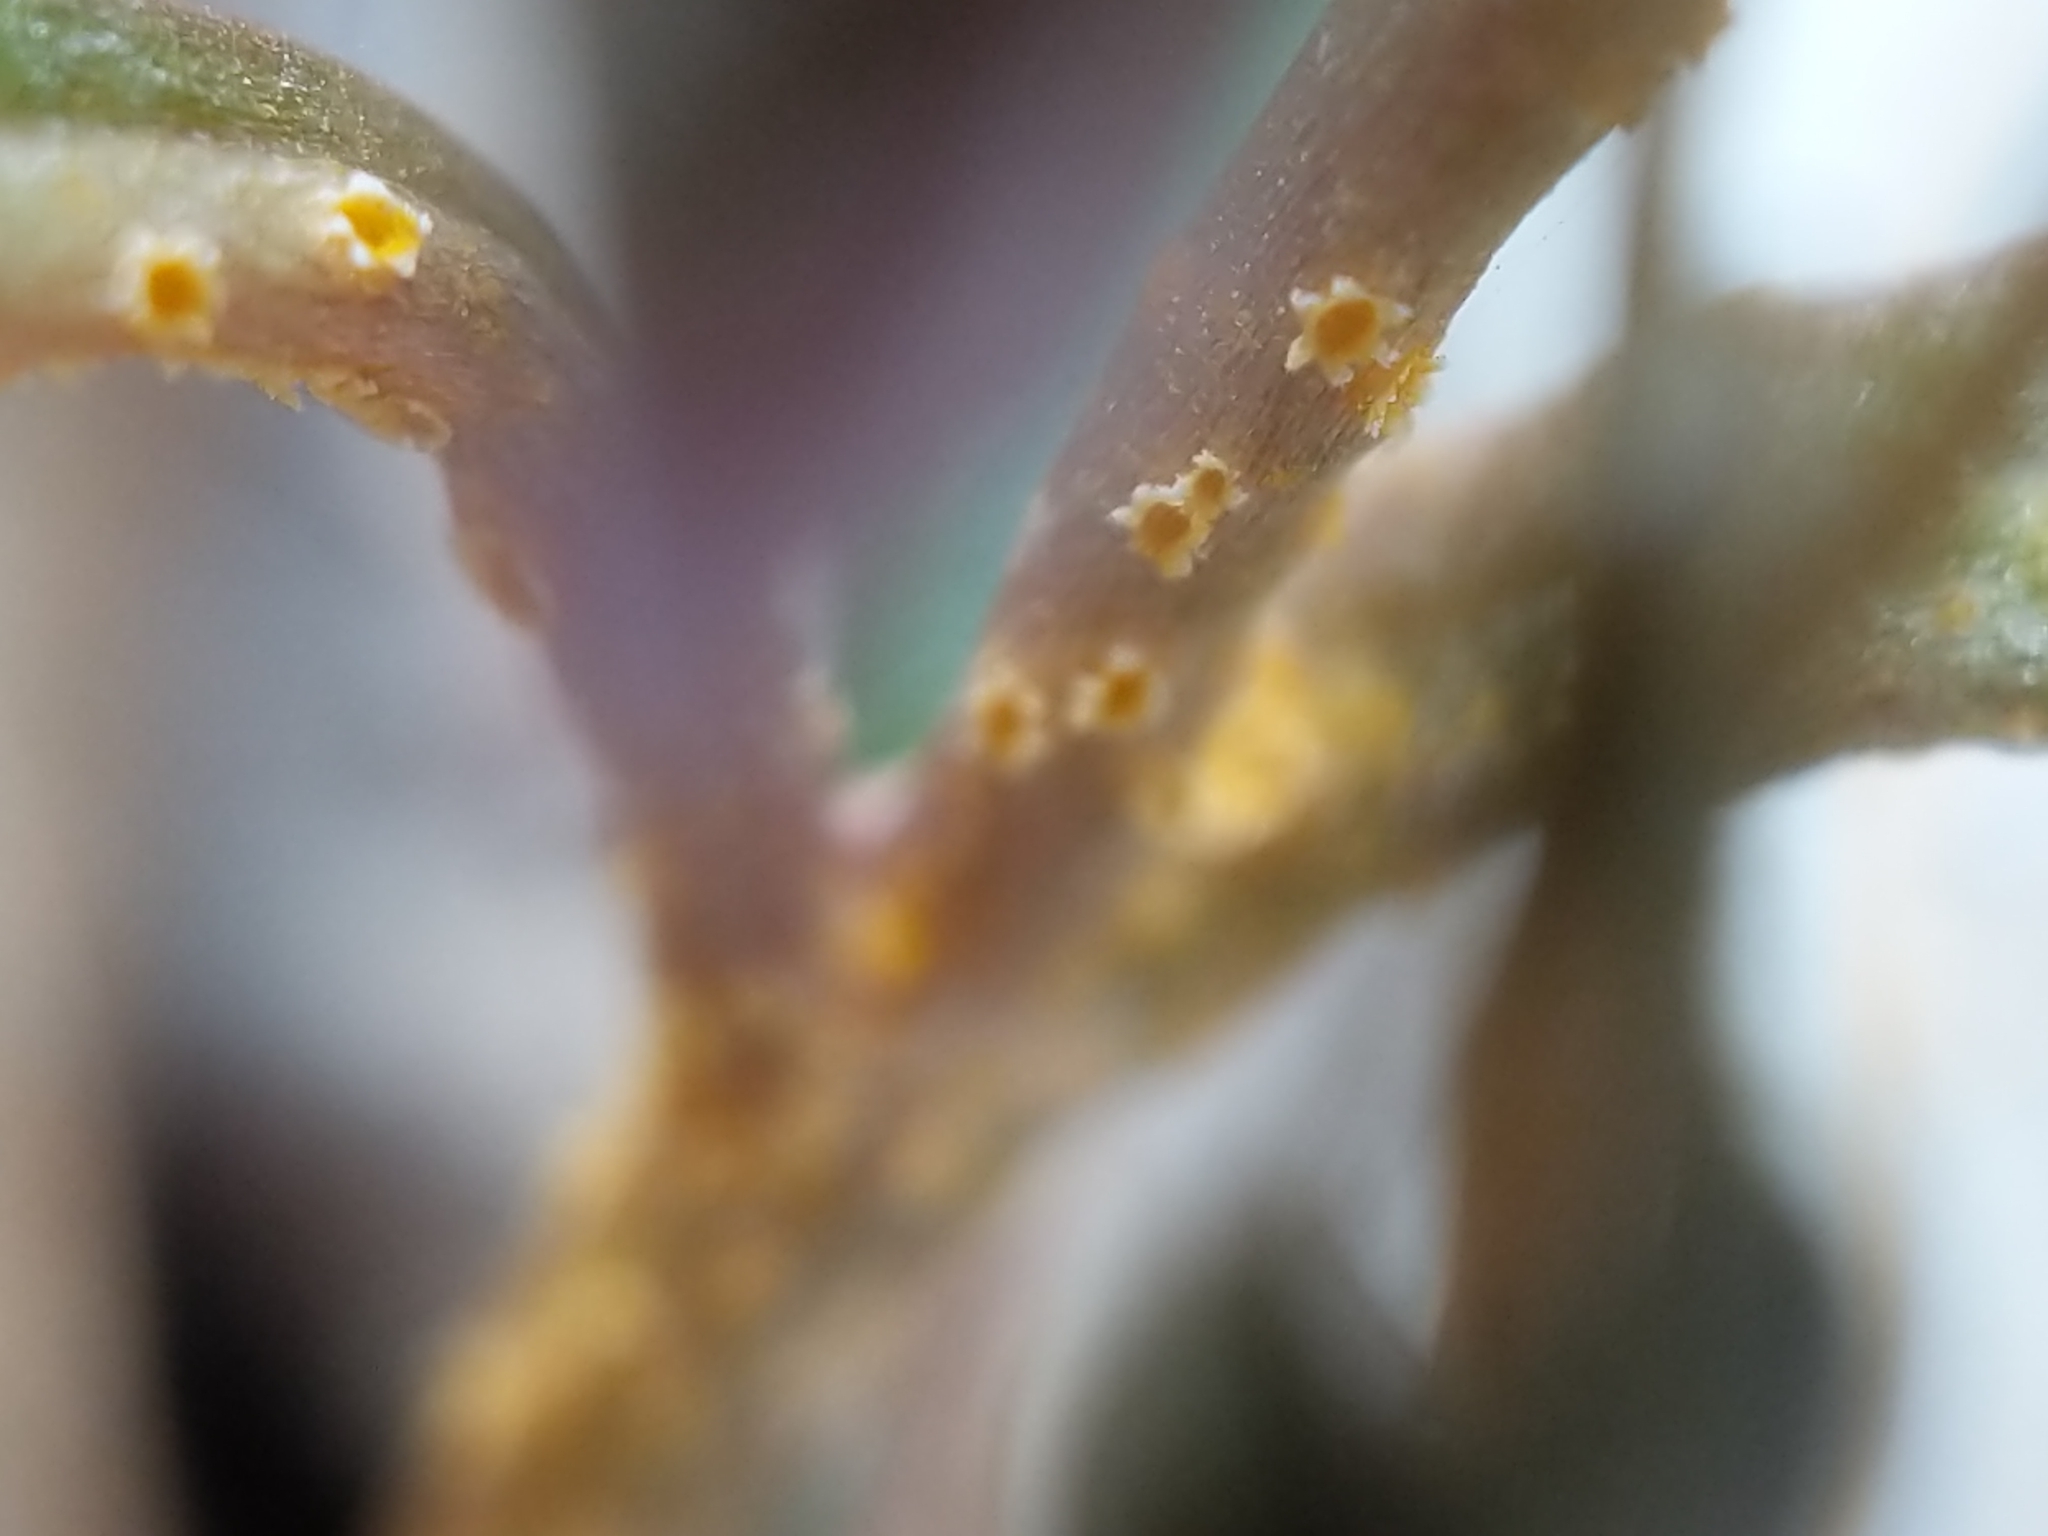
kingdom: Fungi
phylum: Basidiomycota
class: Pucciniomycetes
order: Pucciniales
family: Pucciniaceae
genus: Puccinia
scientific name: Puccinia mariae-wilsoniae
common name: Spring beauty rust
